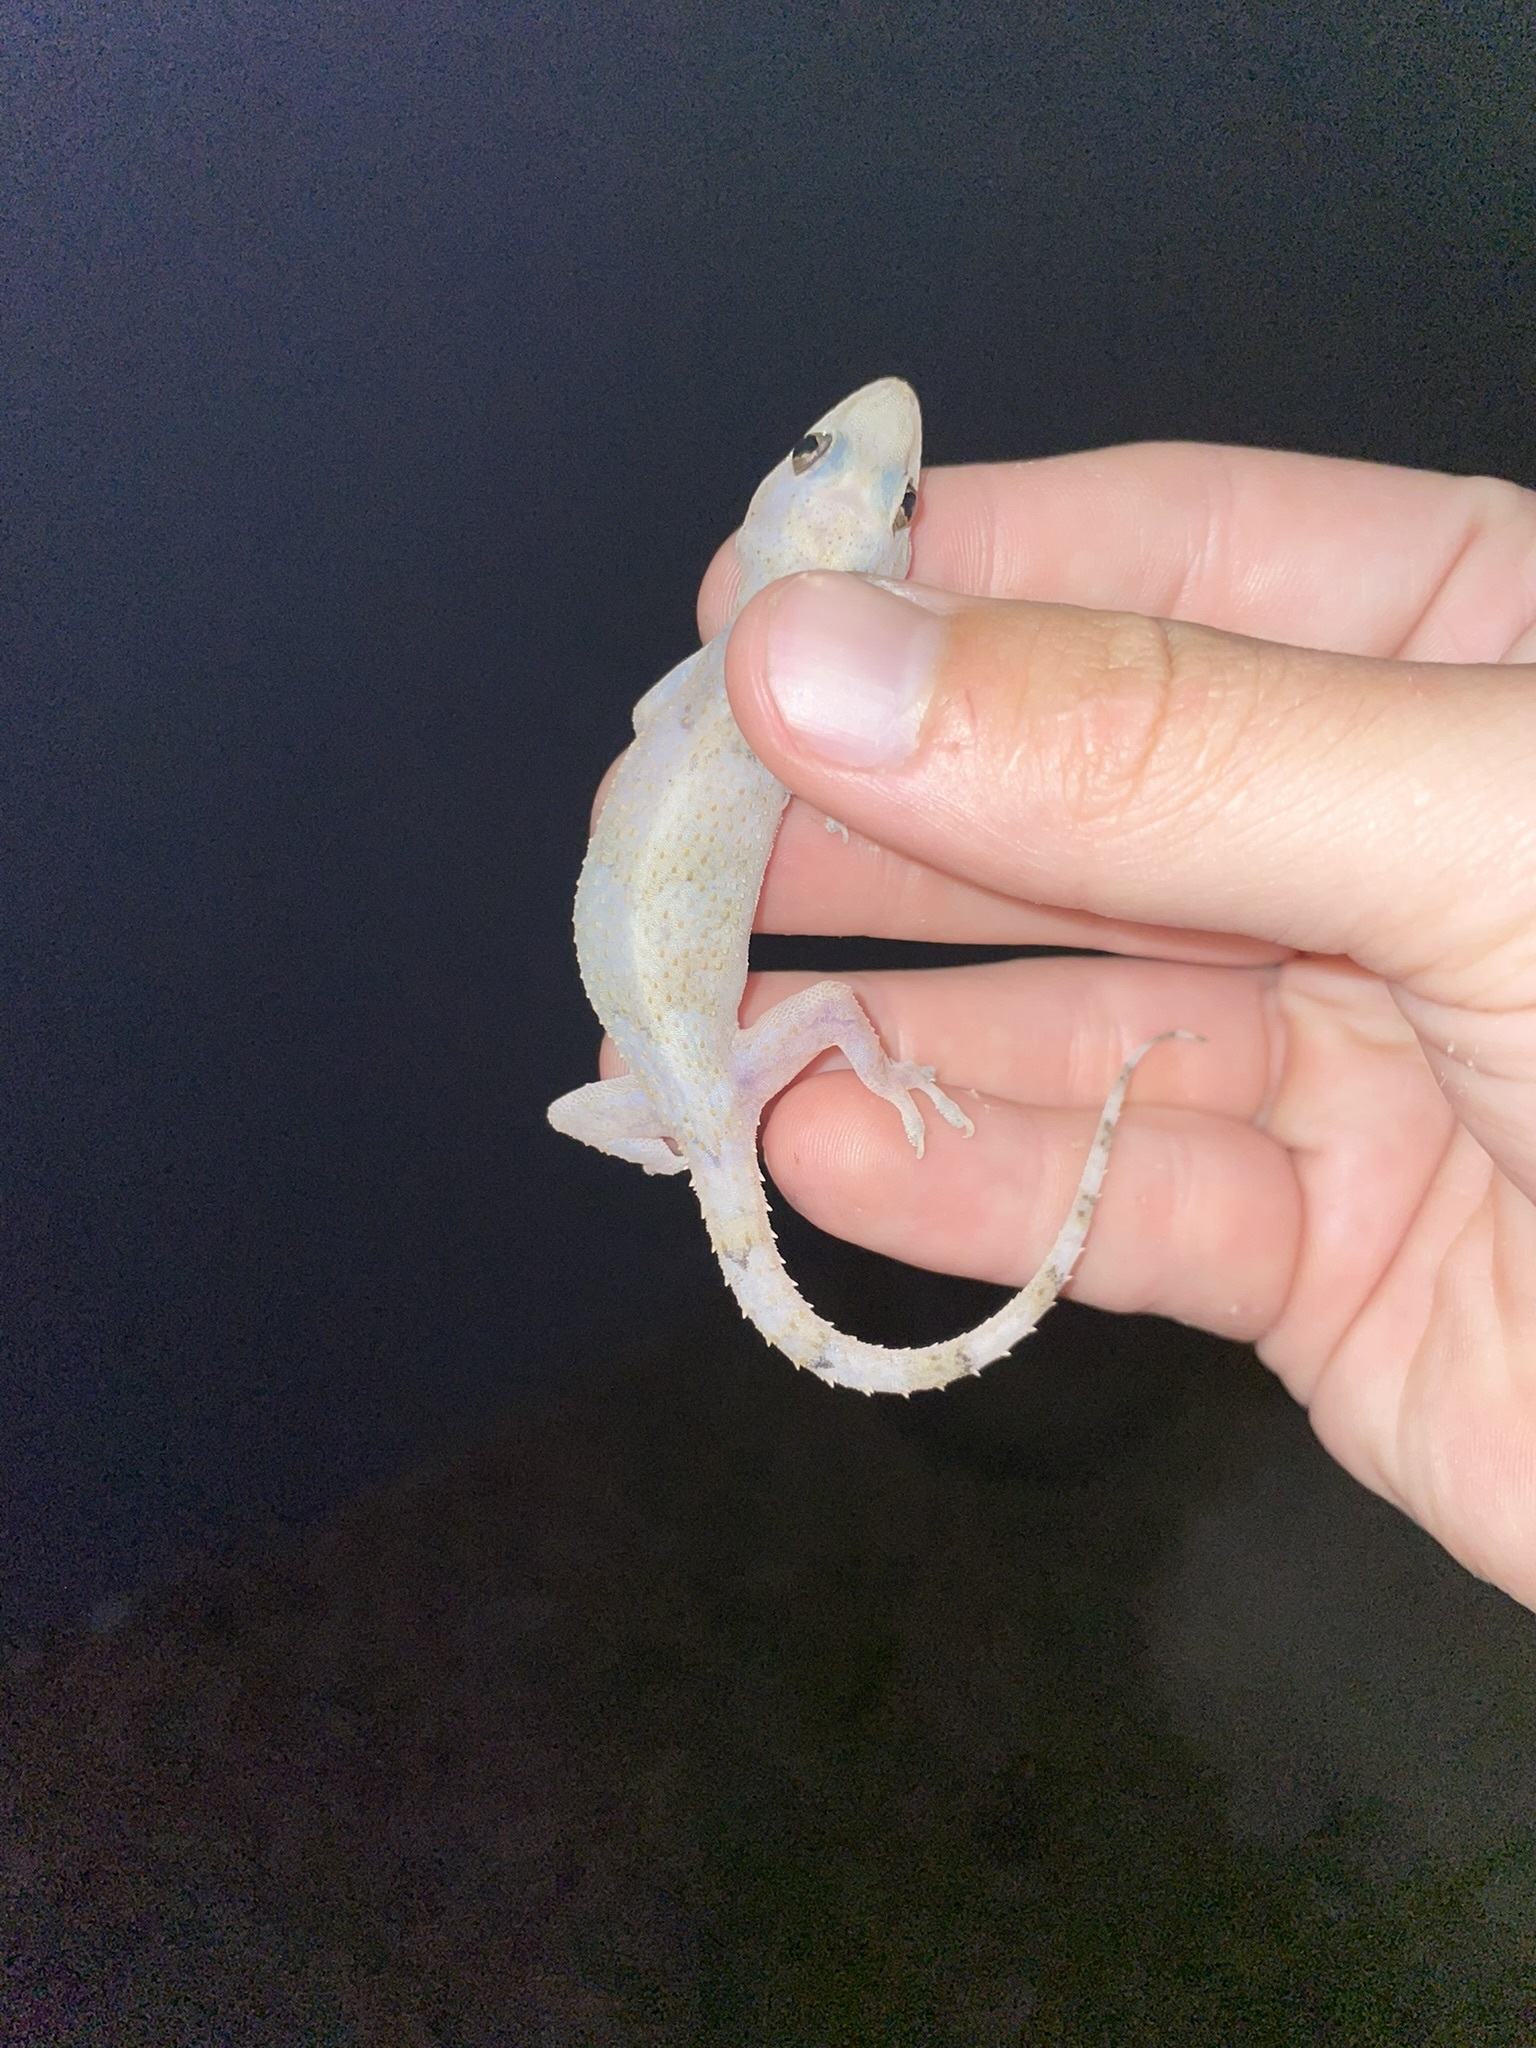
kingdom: Animalia
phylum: Chordata
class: Squamata
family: Gekkonidae
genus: Hemidactylus
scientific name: Hemidactylus mabouia
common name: House gecko
